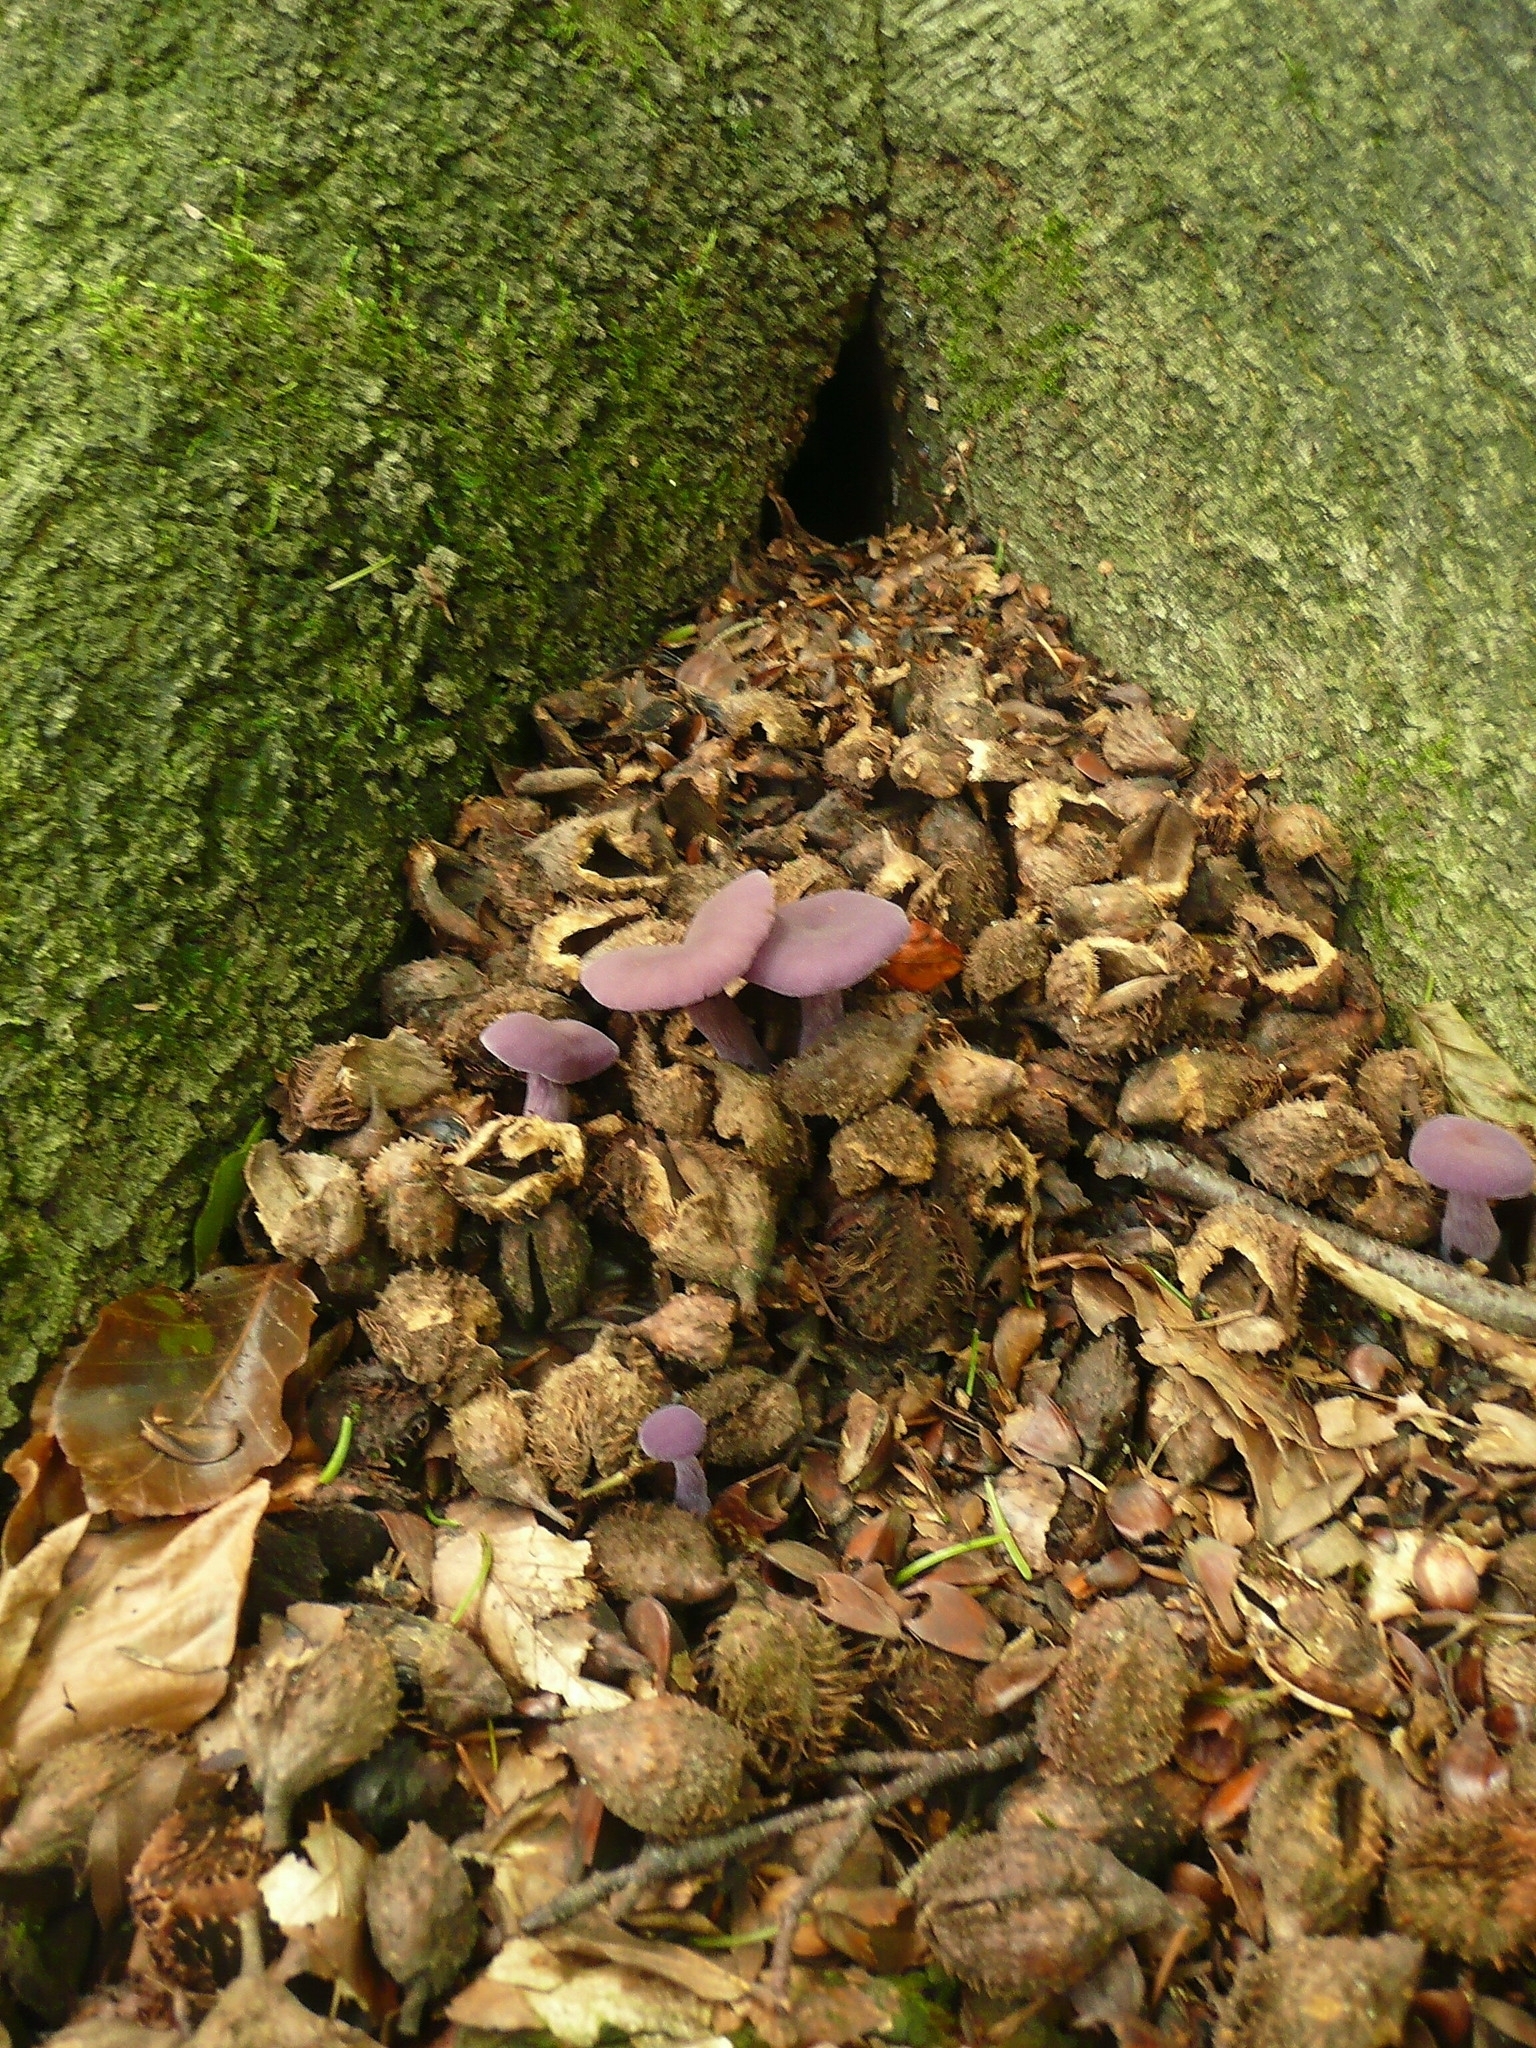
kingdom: Fungi
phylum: Basidiomycota
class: Agaricomycetes
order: Agaricales
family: Hydnangiaceae
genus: Laccaria
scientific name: Laccaria amethystina
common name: Amethyst deceiver
